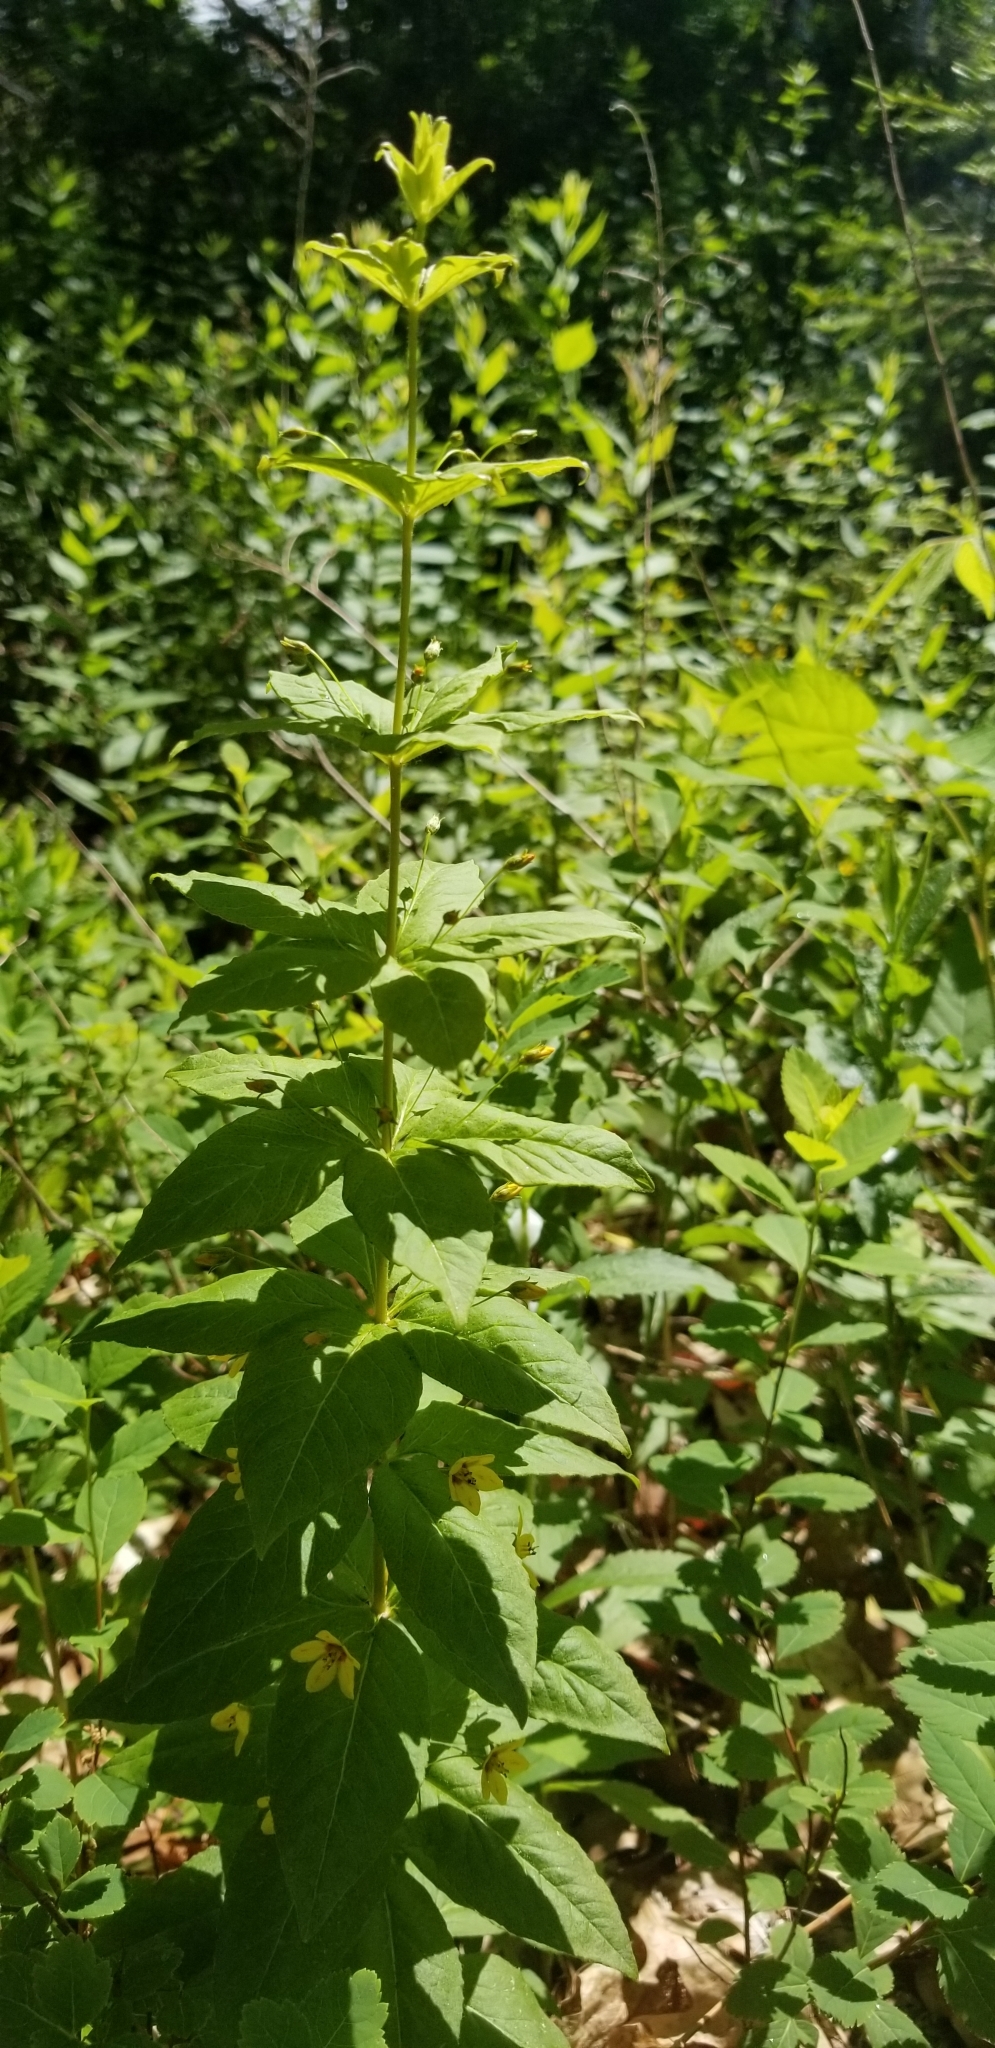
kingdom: Plantae
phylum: Tracheophyta
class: Magnoliopsida
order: Ericales
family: Primulaceae
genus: Lysimachia
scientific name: Lysimachia quadrifolia
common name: Whorled loosestrife
